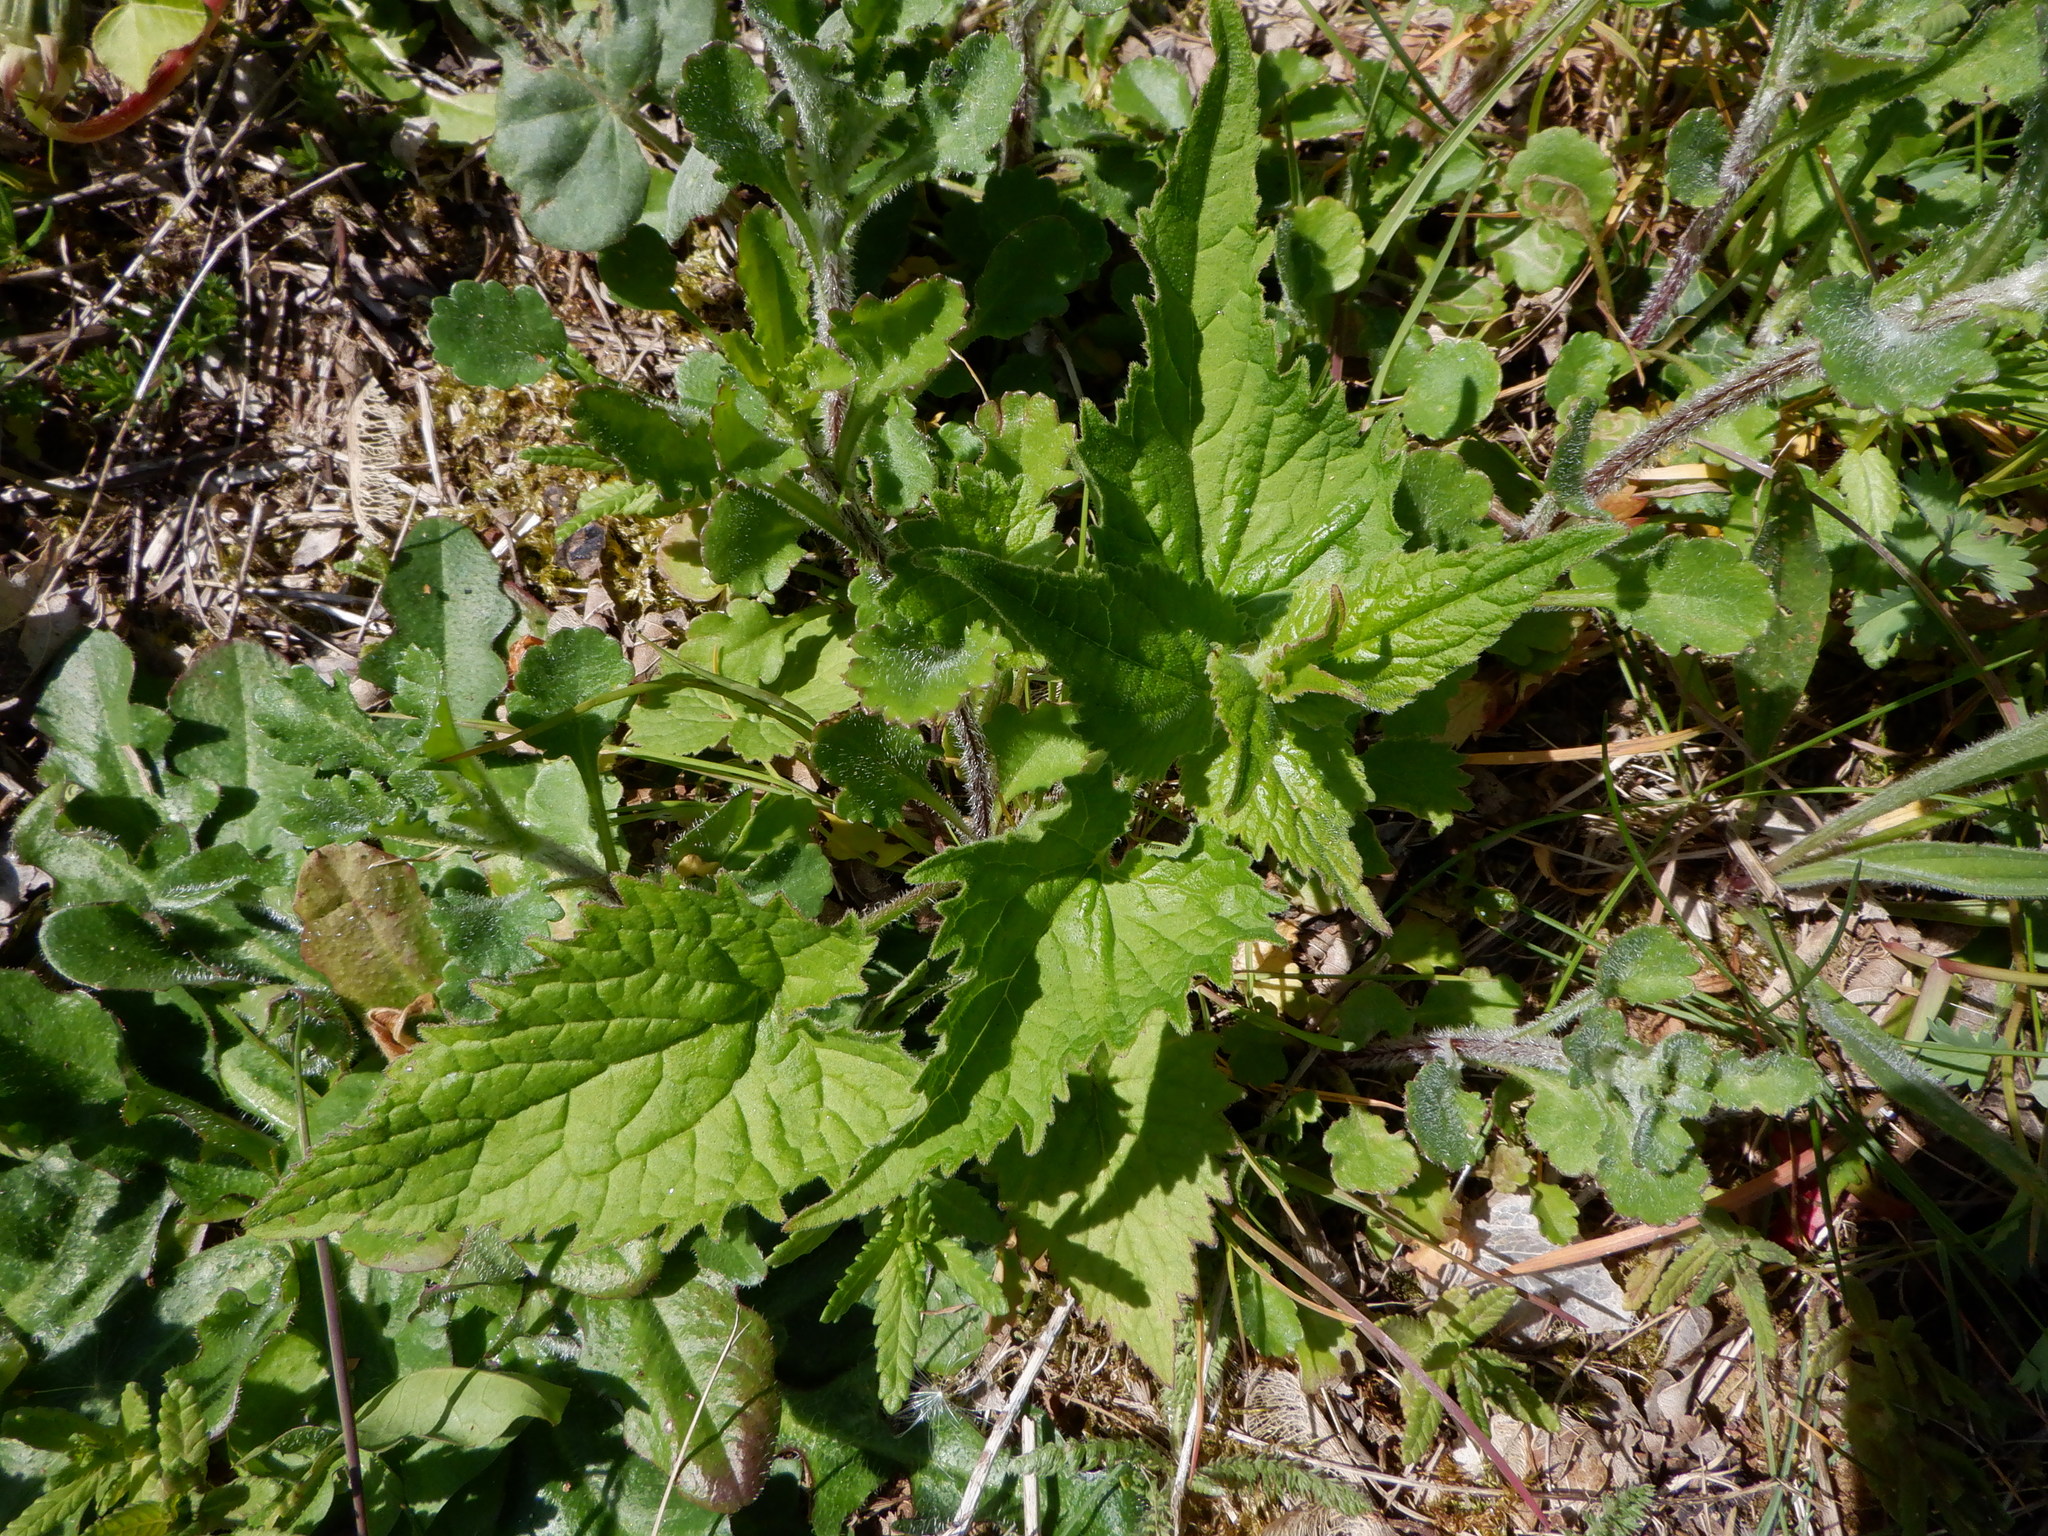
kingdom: Plantae
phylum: Tracheophyta
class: Magnoliopsida
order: Asterales
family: Campanulaceae
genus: Campanula
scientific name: Campanula trachelium
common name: Nettle-leaved bellflower
